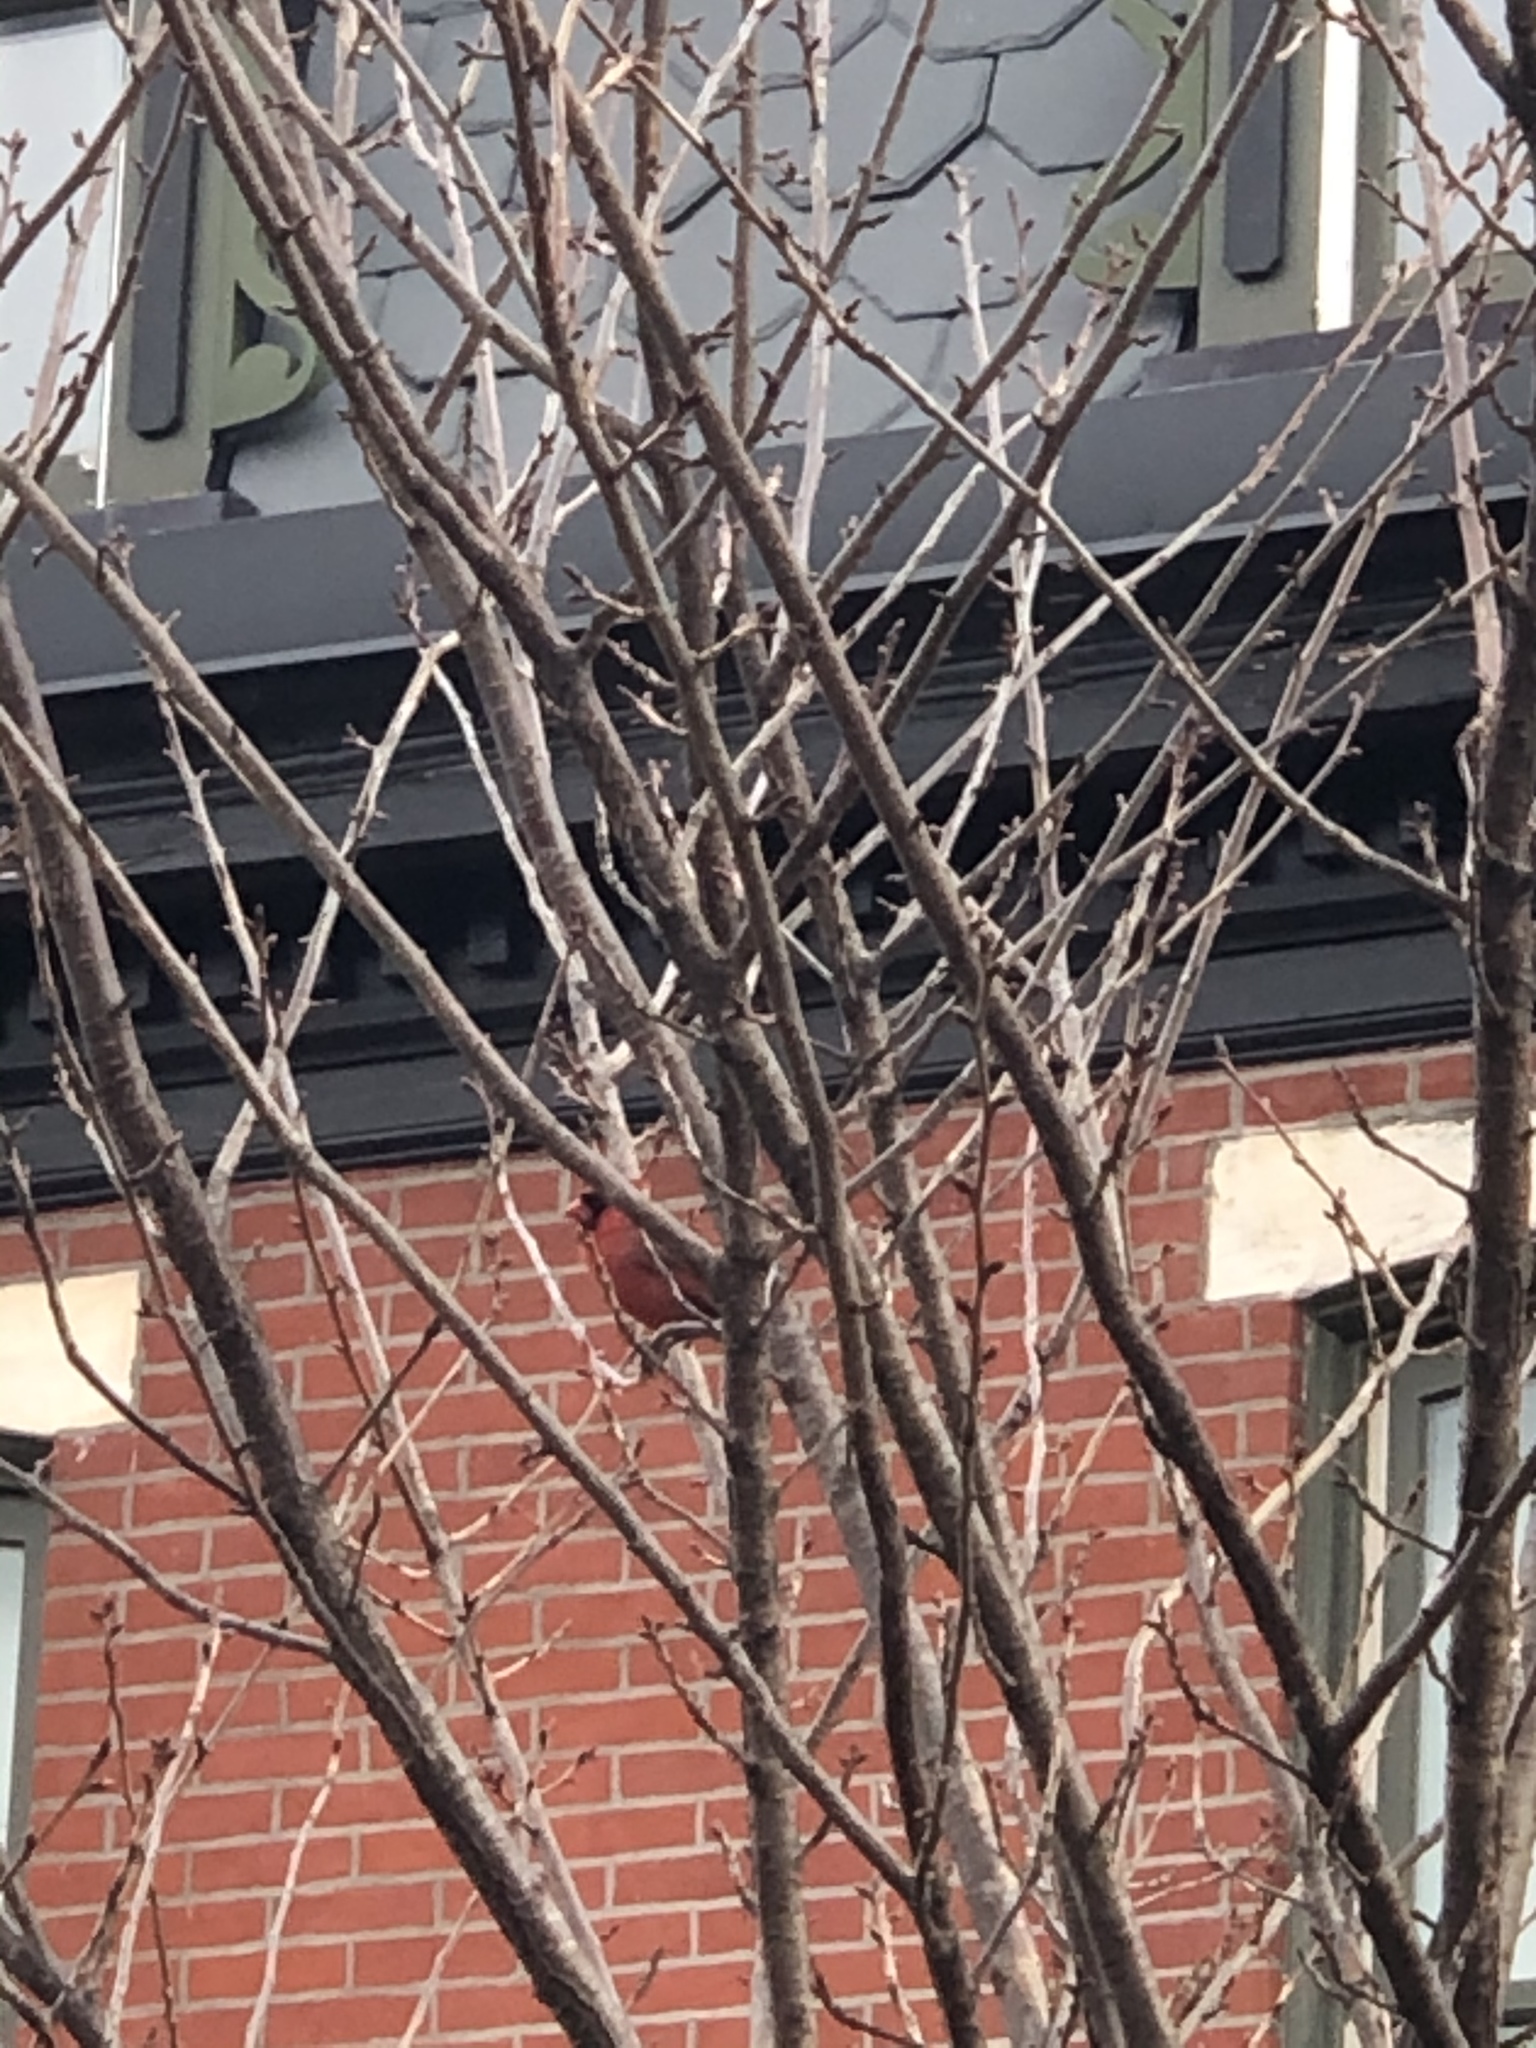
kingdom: Animalia
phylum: Chordata
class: Aves
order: Passeriformes
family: Cardinalidae
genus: Cardinalis
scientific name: Cardinalis cardinalis
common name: Northern cardinal
